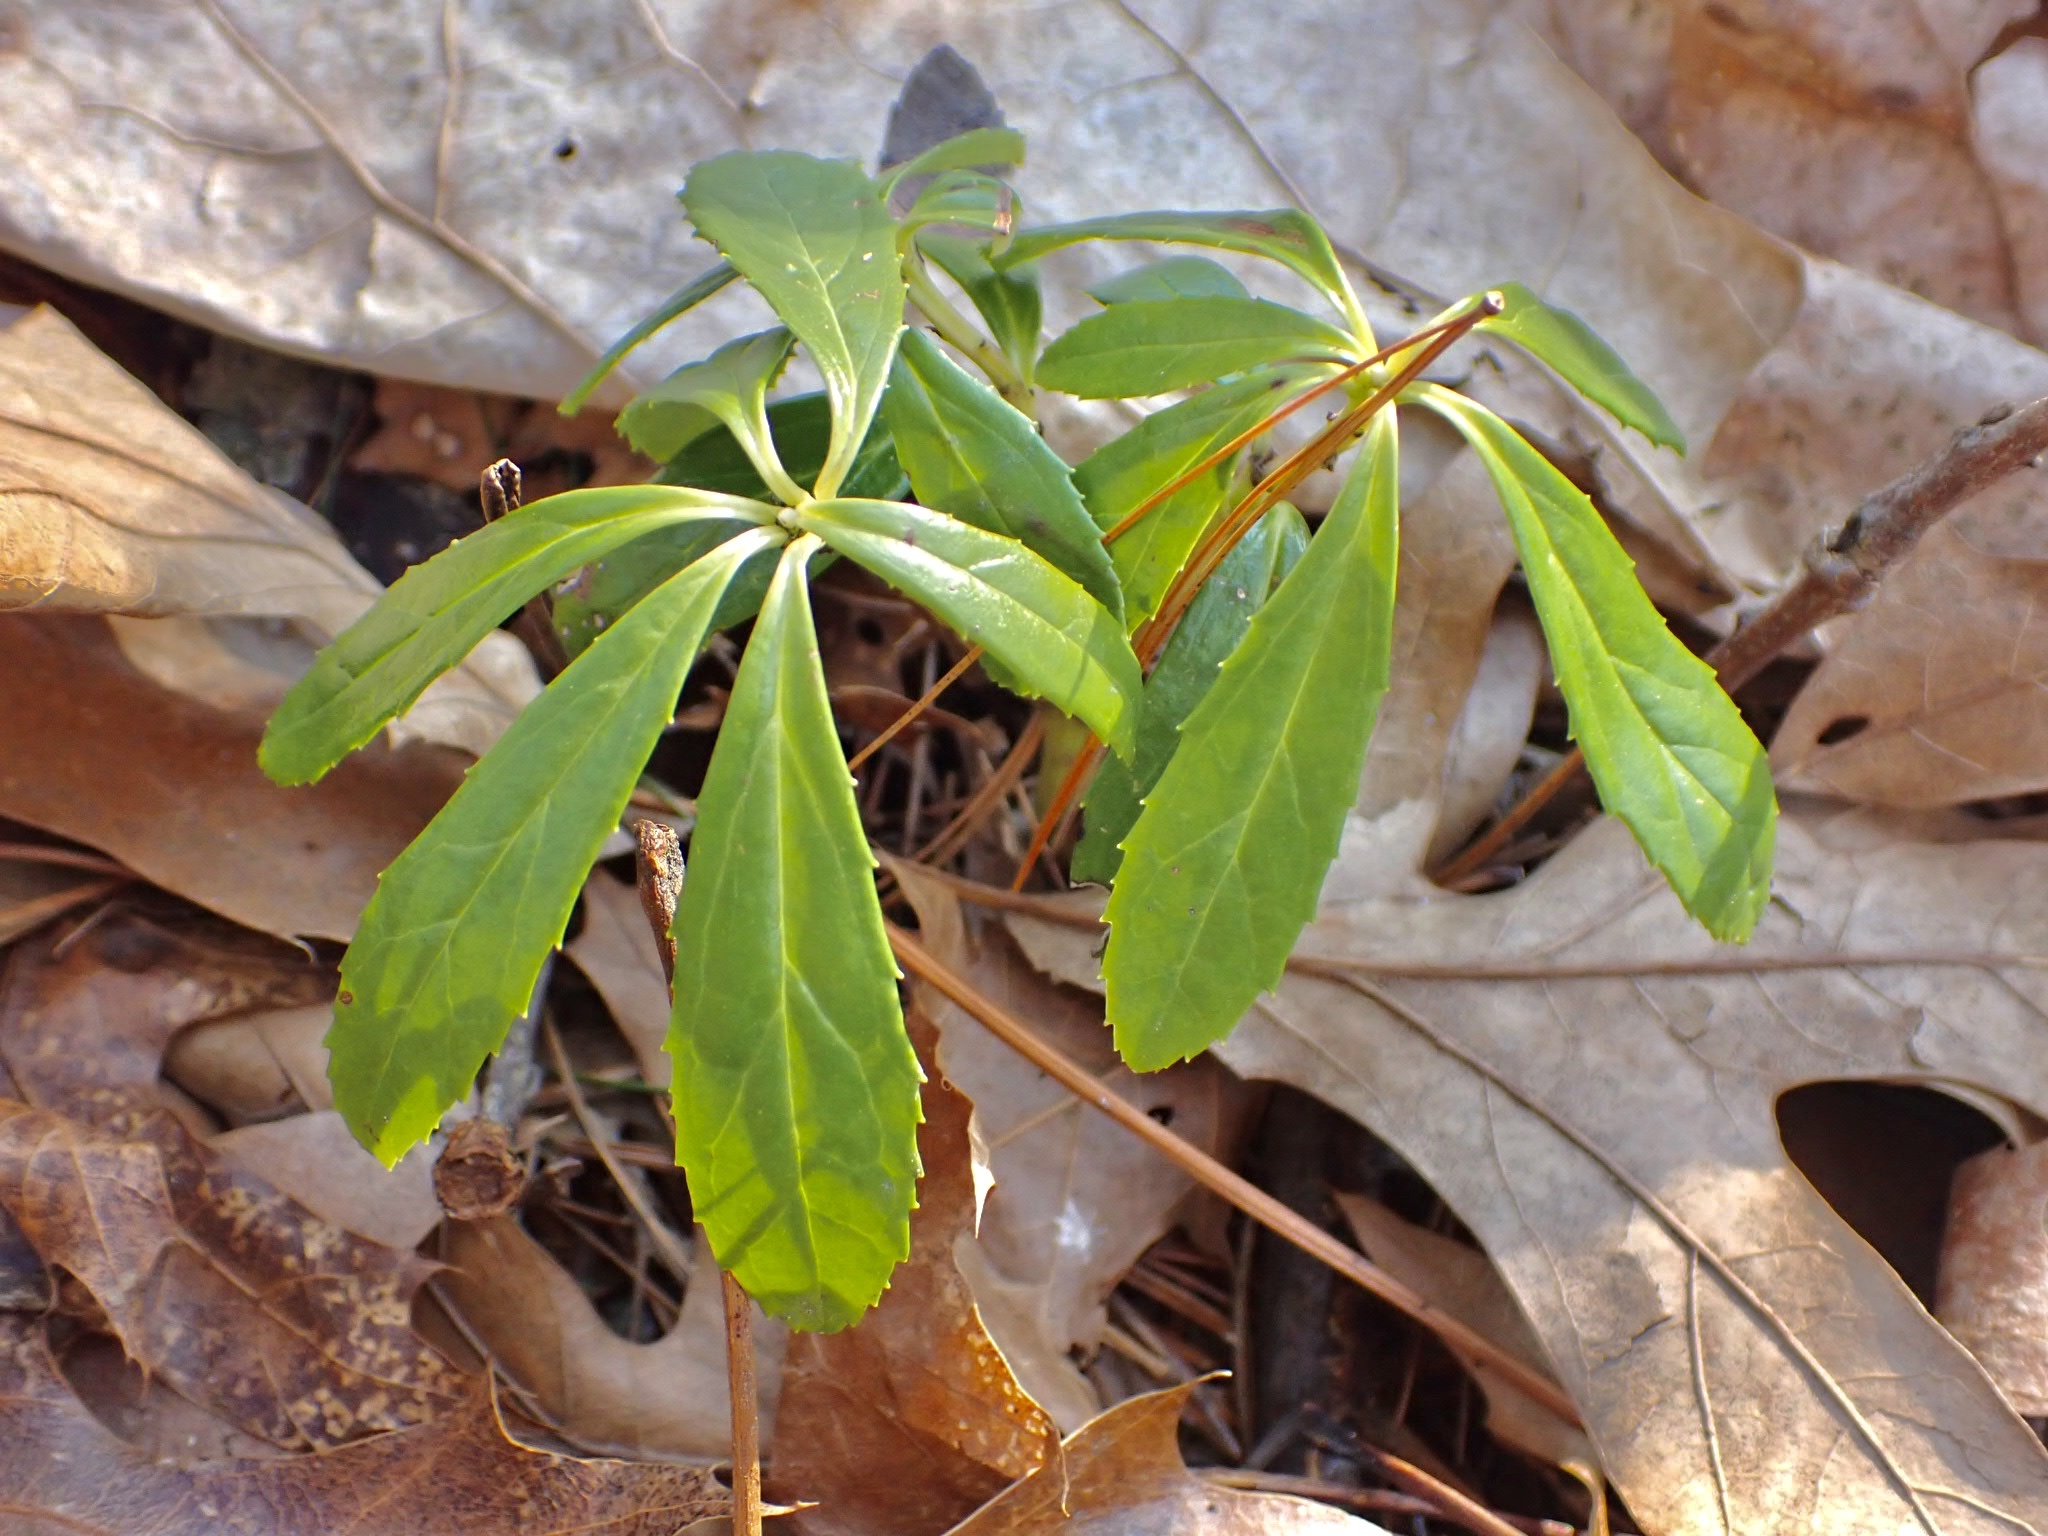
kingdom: Plantae
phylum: Tracheophyta
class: Magnoliopsida
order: Ericales
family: Ericaceae
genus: Chimaphila
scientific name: Chimaphila umbellata
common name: Pipsissewa
